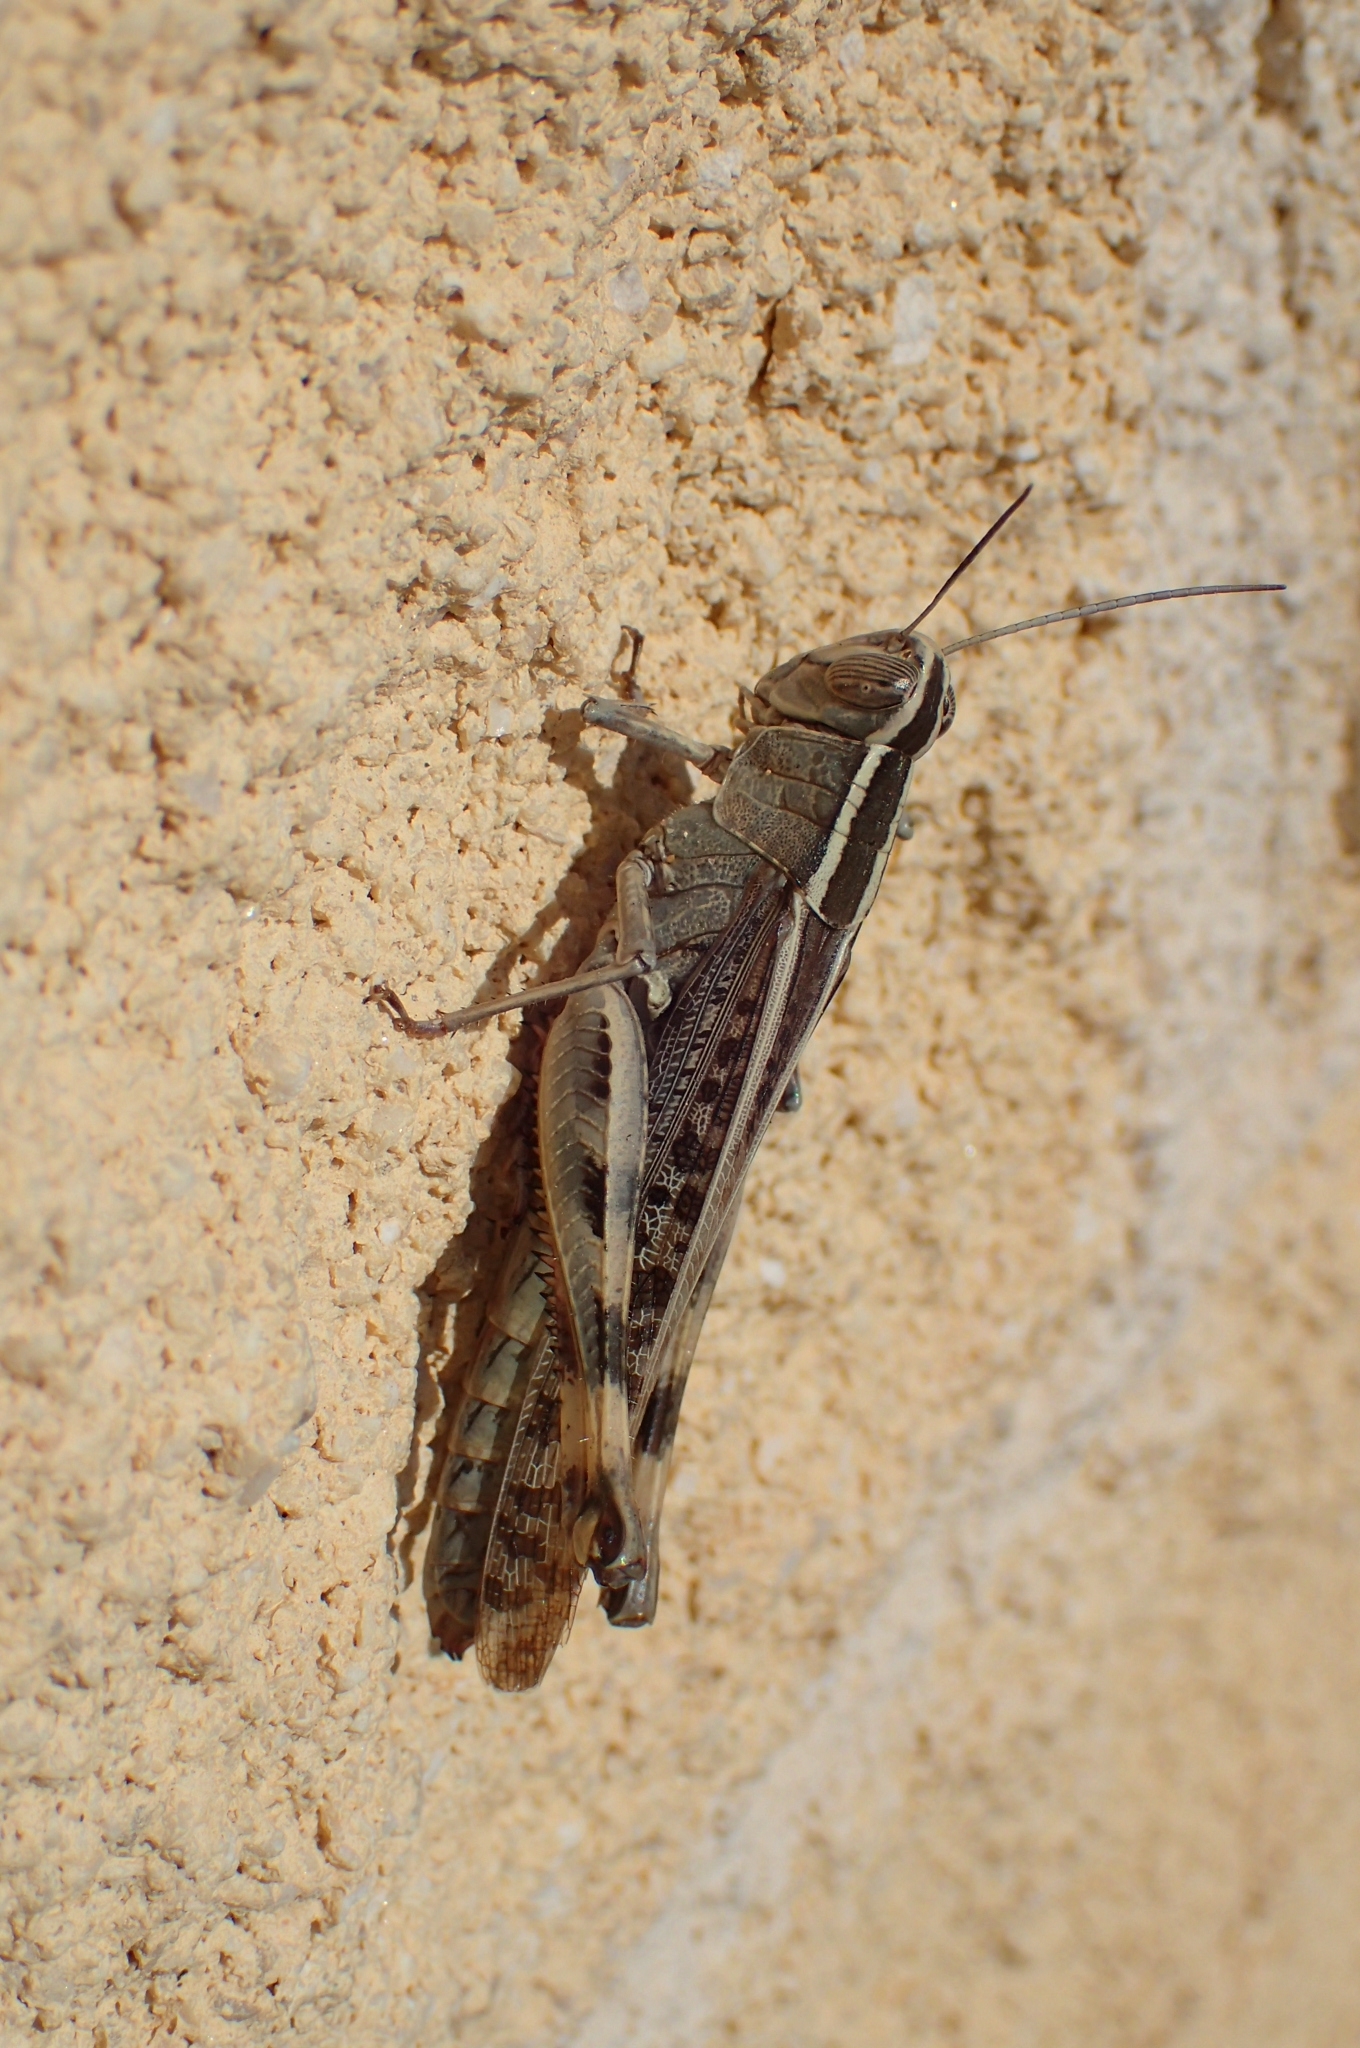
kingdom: Animalia
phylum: Arthropoda
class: Insecta
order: Orthoptera
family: Acrididae
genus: Heteracris
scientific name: Heteracris littoralis
